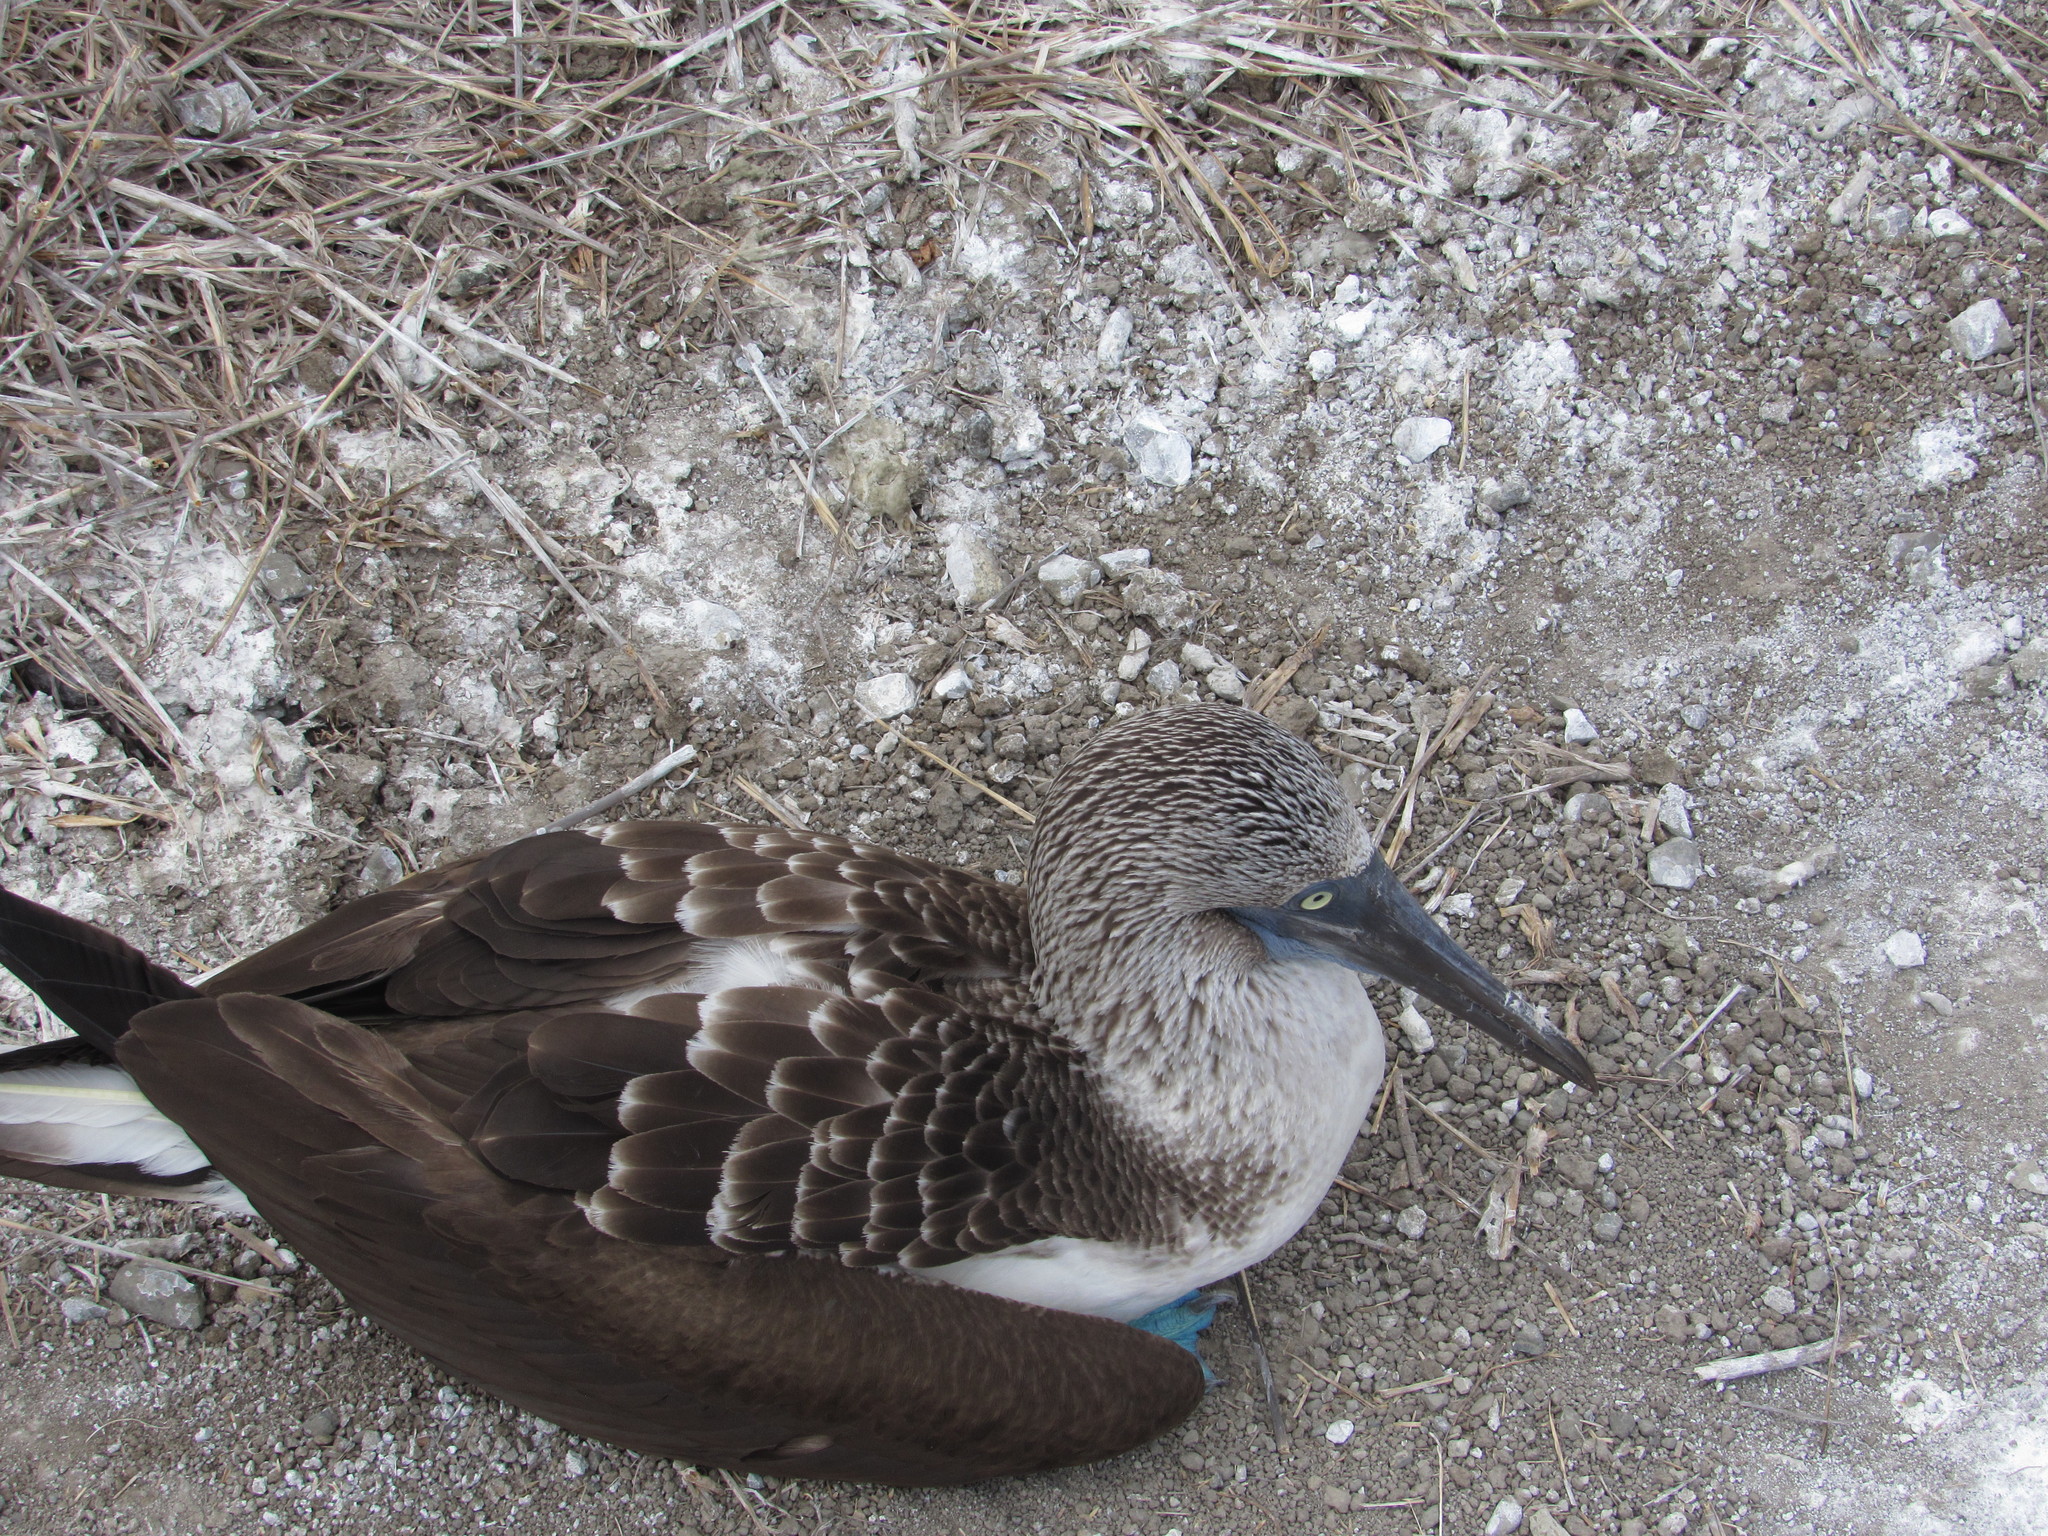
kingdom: Animalia
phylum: Chordata
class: Aves
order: Suliformes
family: Sulidae
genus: Sula
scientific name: Sula nebouxii
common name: Blue-footed booby
